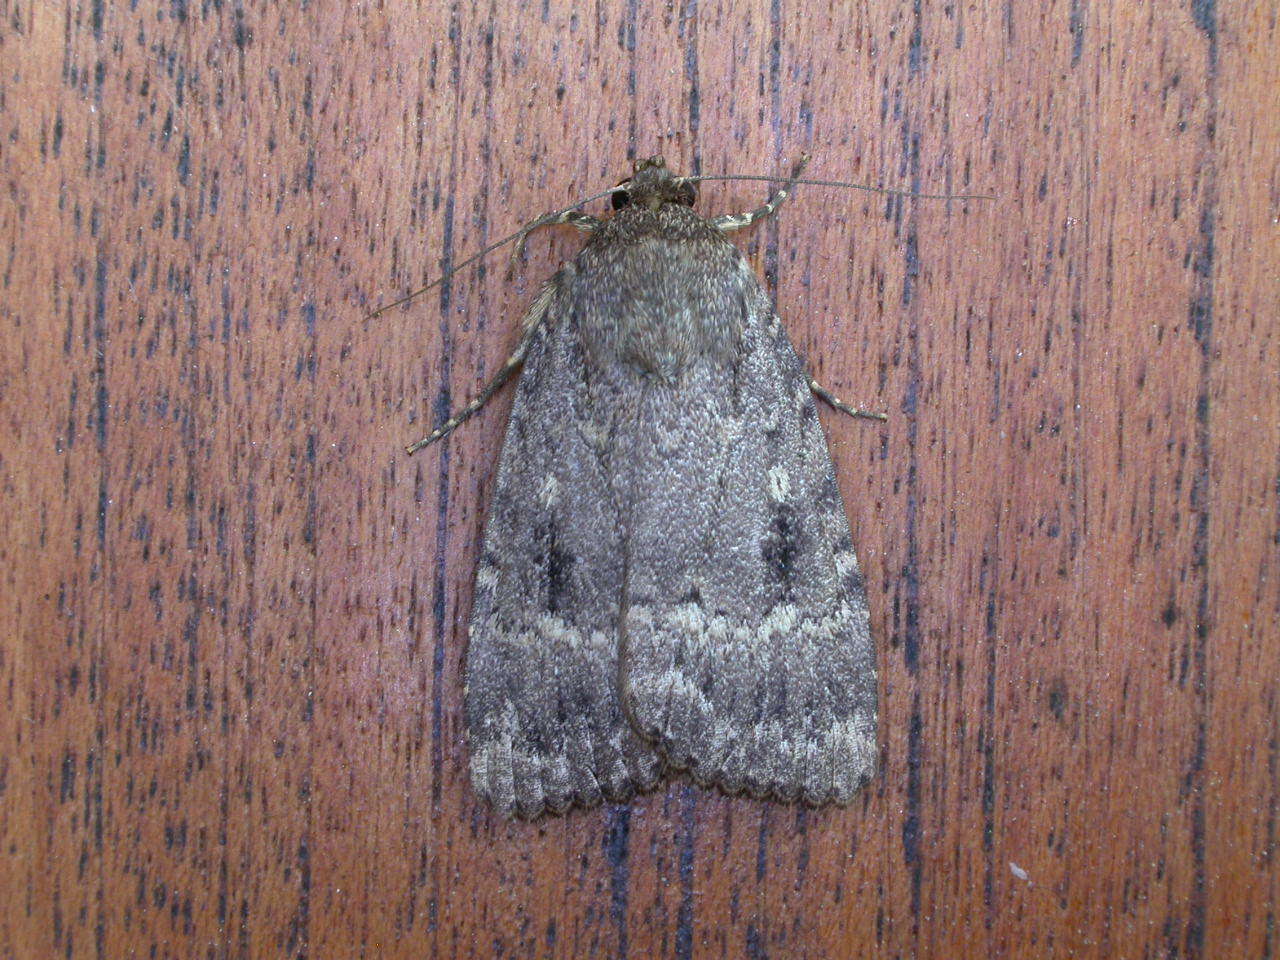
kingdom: Animalia
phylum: Arthropoda
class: Insecta
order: Lepidoptera
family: Noctuidae
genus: Amphipyra
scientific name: Amphipyra pyramidea
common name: Copper underwing
